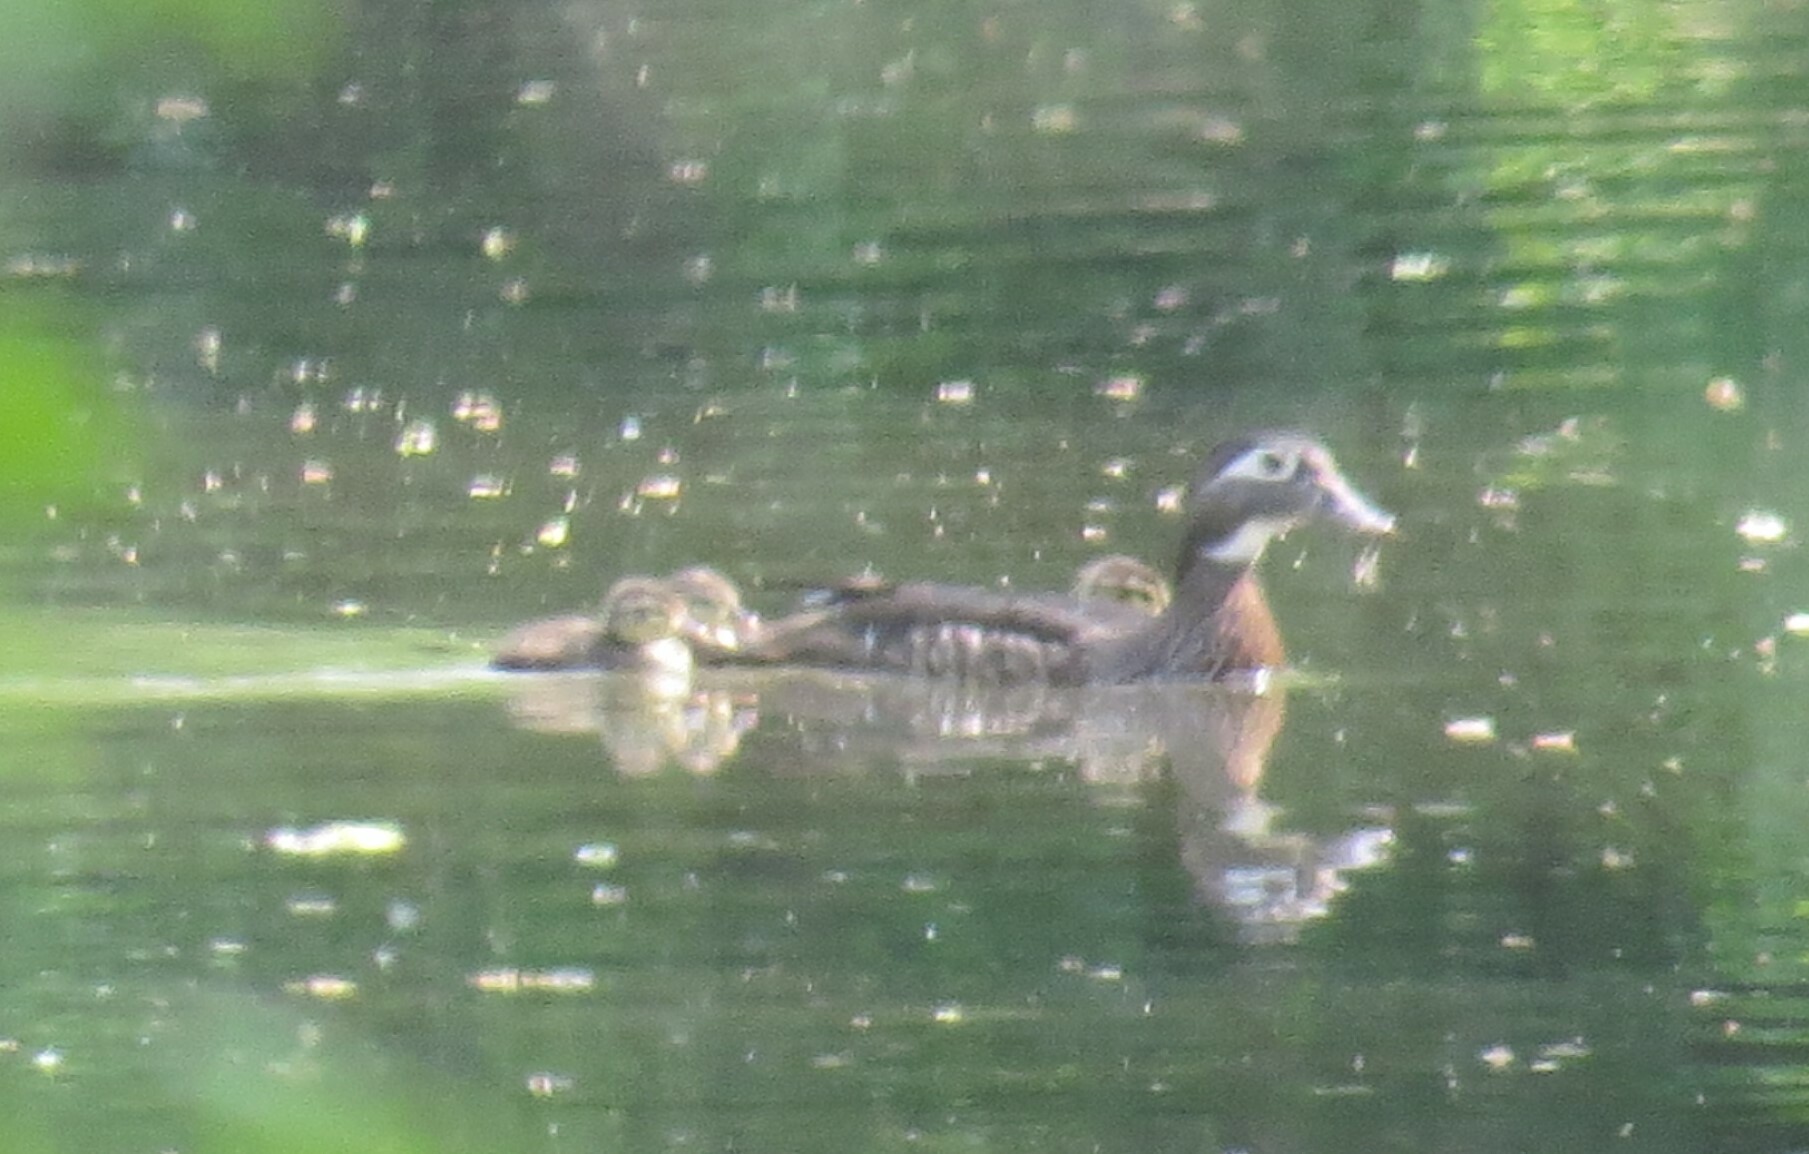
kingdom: Animalia
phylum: Chordata
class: Aves
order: Anseriformes
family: Anatidae
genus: Aix
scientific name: Aix sponsa
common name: Wood duck
